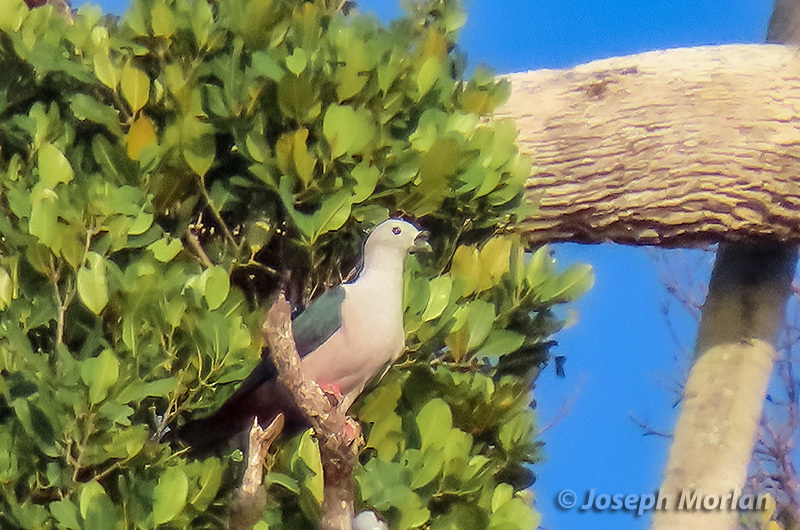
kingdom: Animalia
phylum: Chordata
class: Aves
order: Columbiformes
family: Columbidae
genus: Ducula
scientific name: Ducula myristicivora
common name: Spice imperial pigeon
